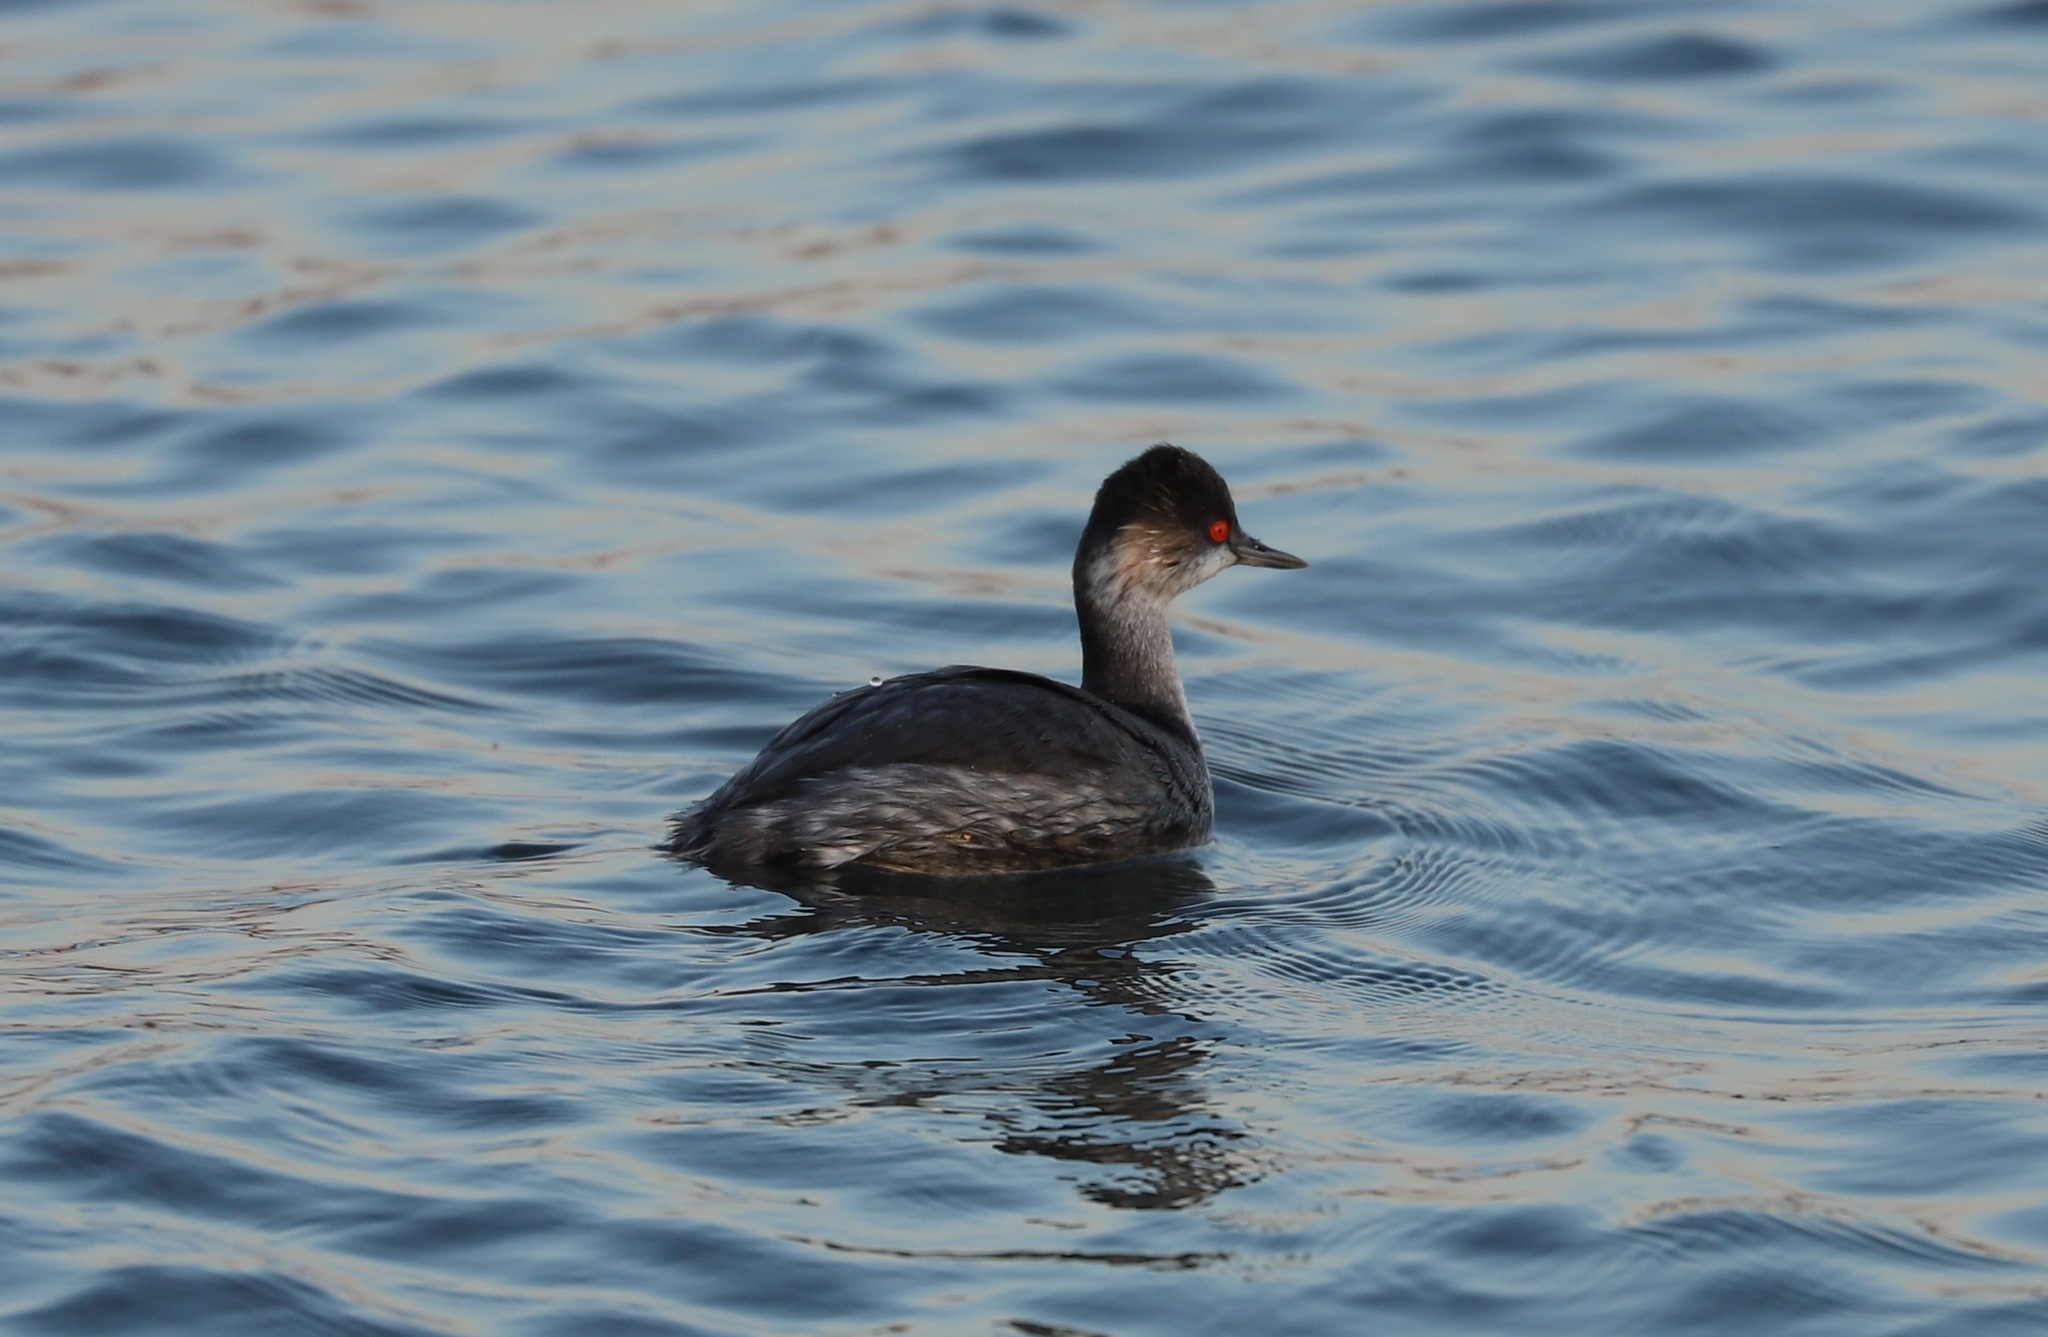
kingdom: Animalia
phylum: Chordata
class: Aves
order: Podicipediformes
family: Podicipedidae
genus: Podiceps
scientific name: Podiceps nigricollis
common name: Black-necked grebe
